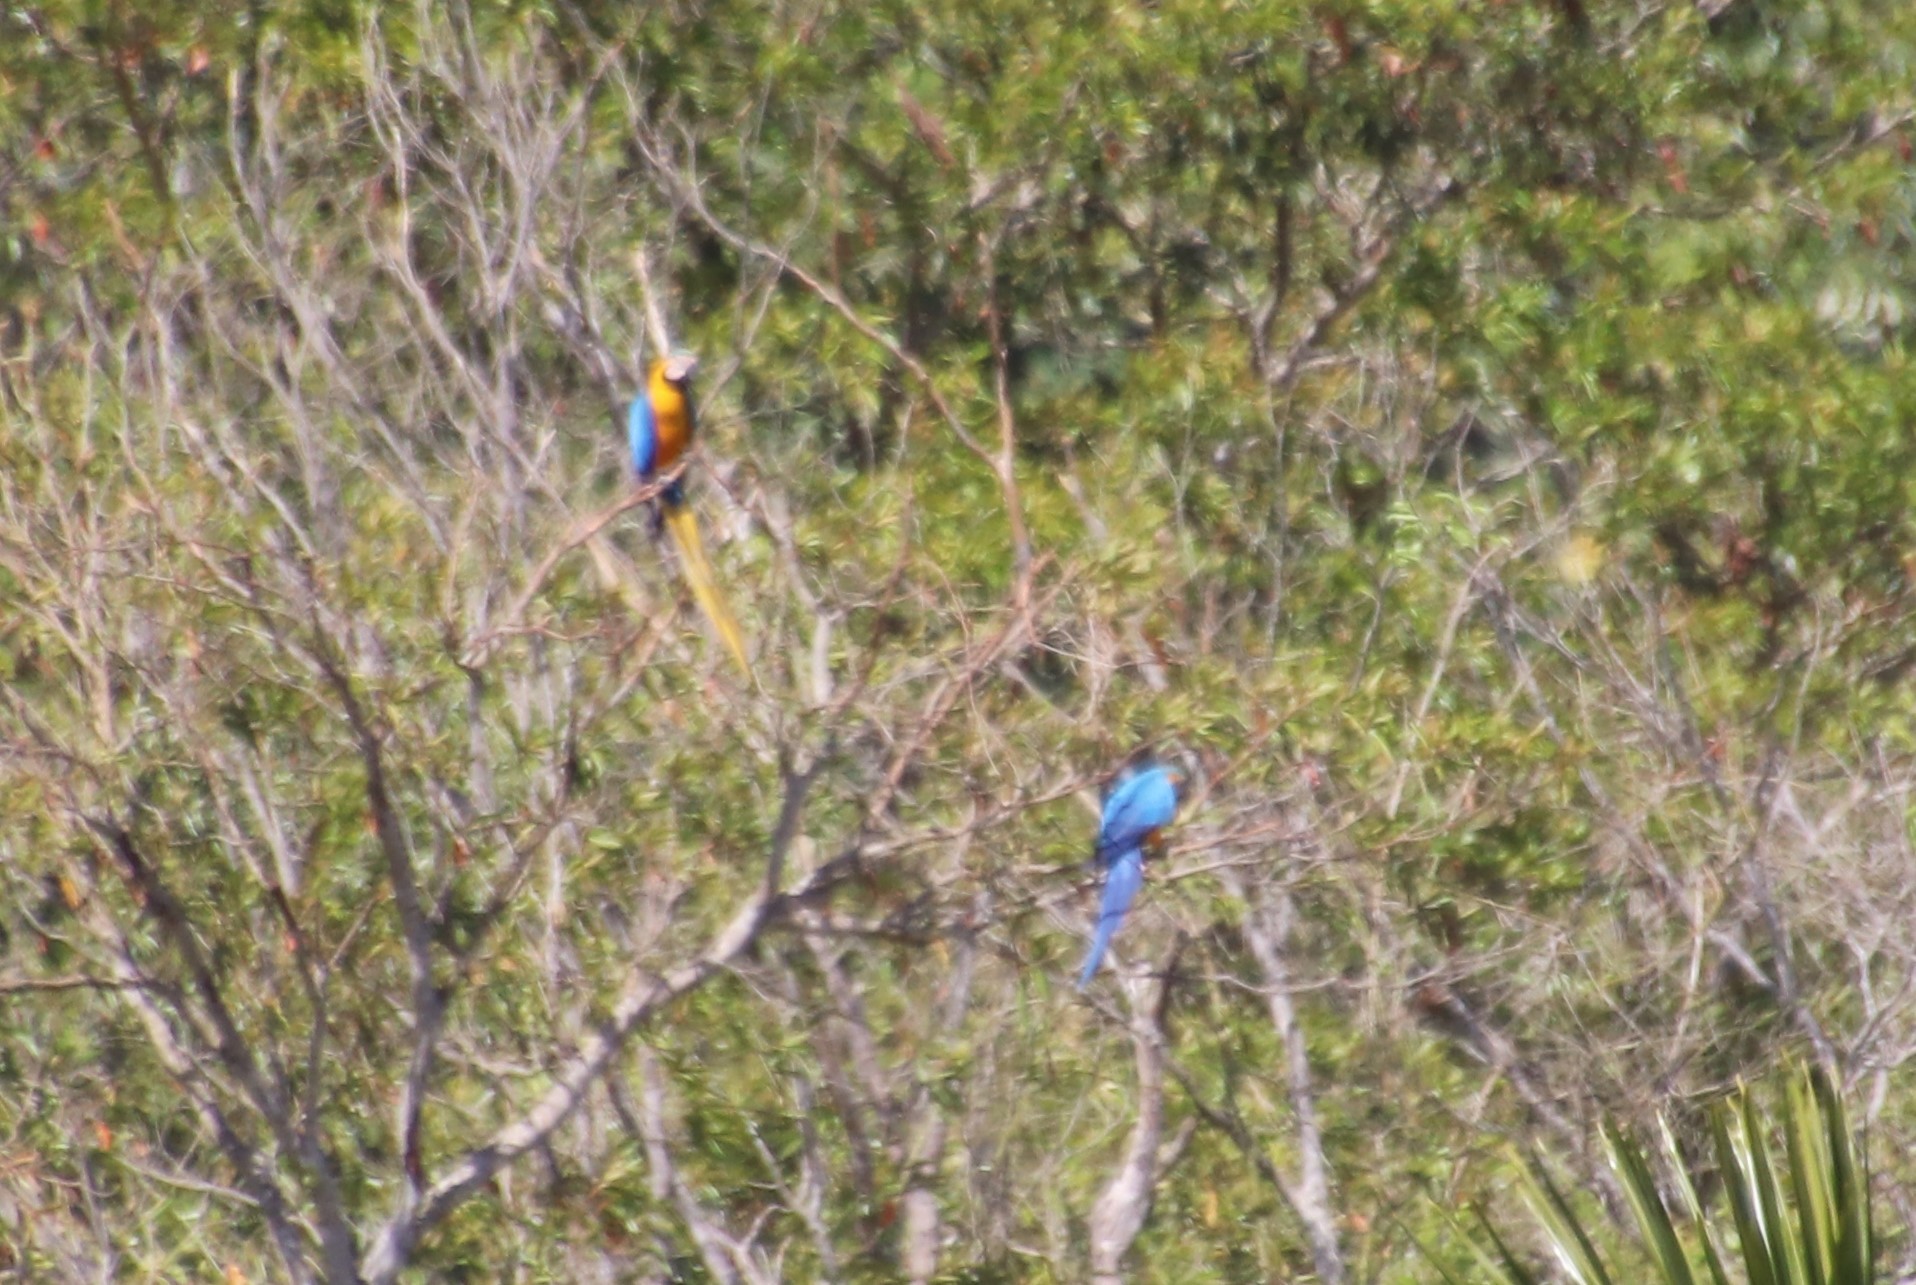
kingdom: Animalia
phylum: Chordata
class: Aves
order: Psittaciformes
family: Psittacidae
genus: Ara
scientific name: Ara ararauna
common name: Blue-and-yellow macaw
